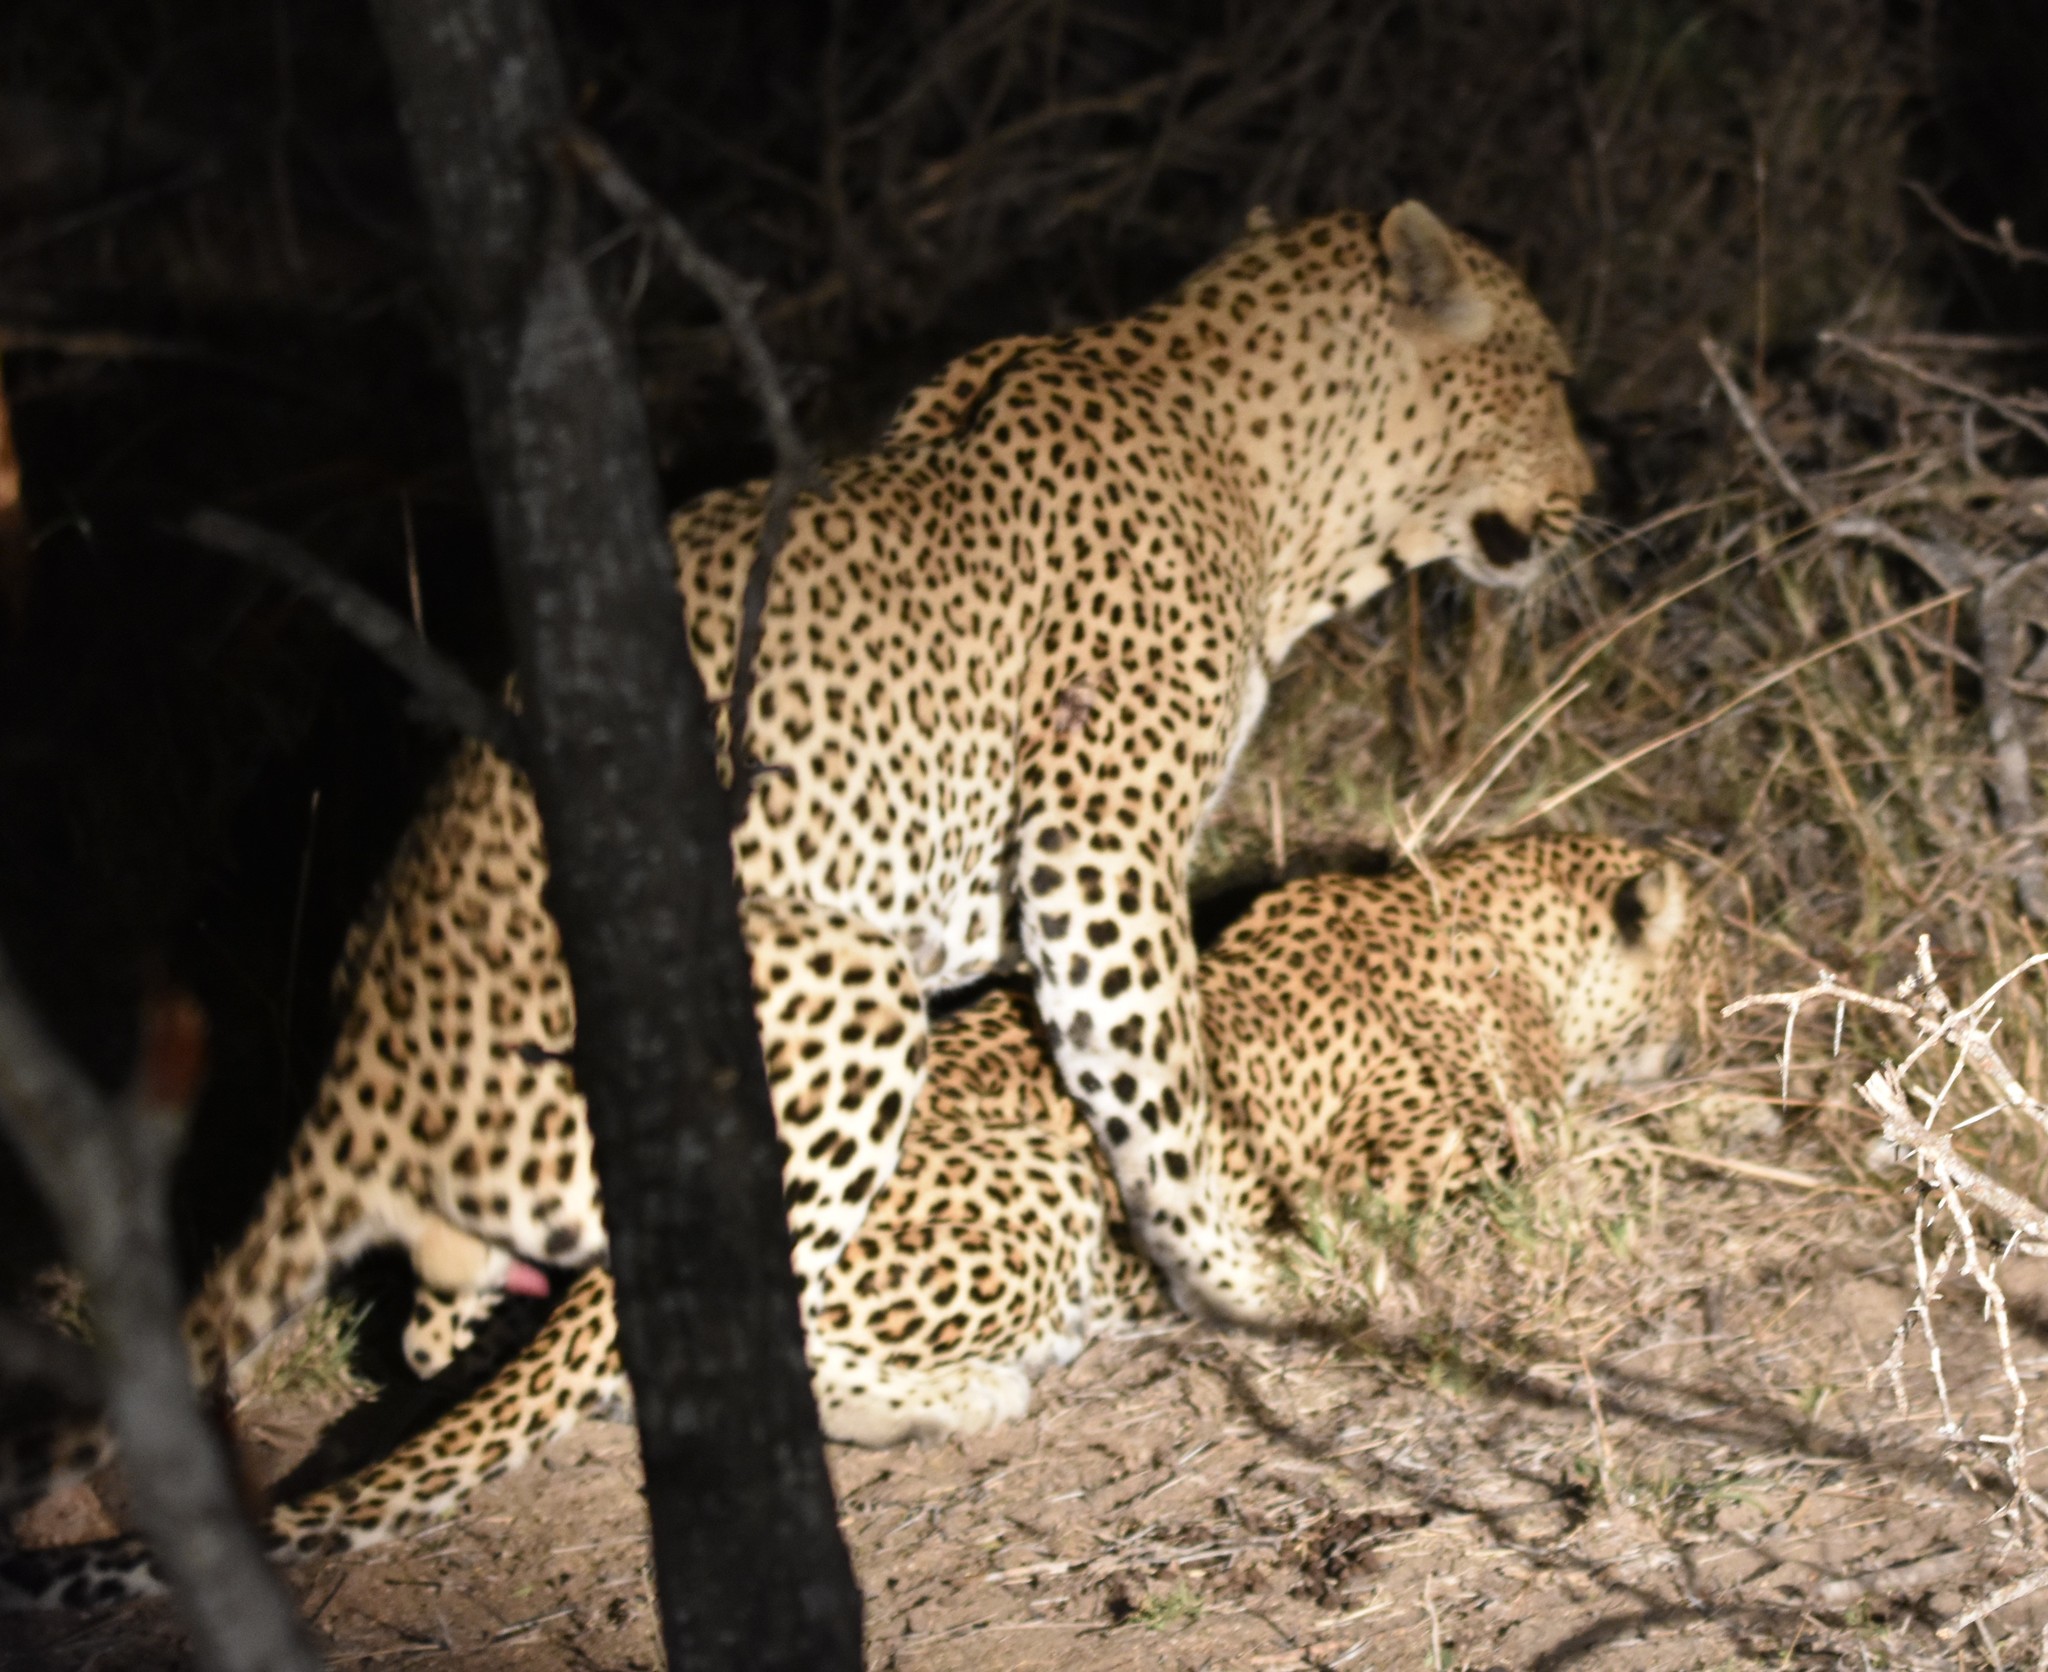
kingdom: Animalia
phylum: Chordata
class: Mammalia
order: Carnivora
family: Felidae
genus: Panthera
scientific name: Panthera pardus
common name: Leopard
